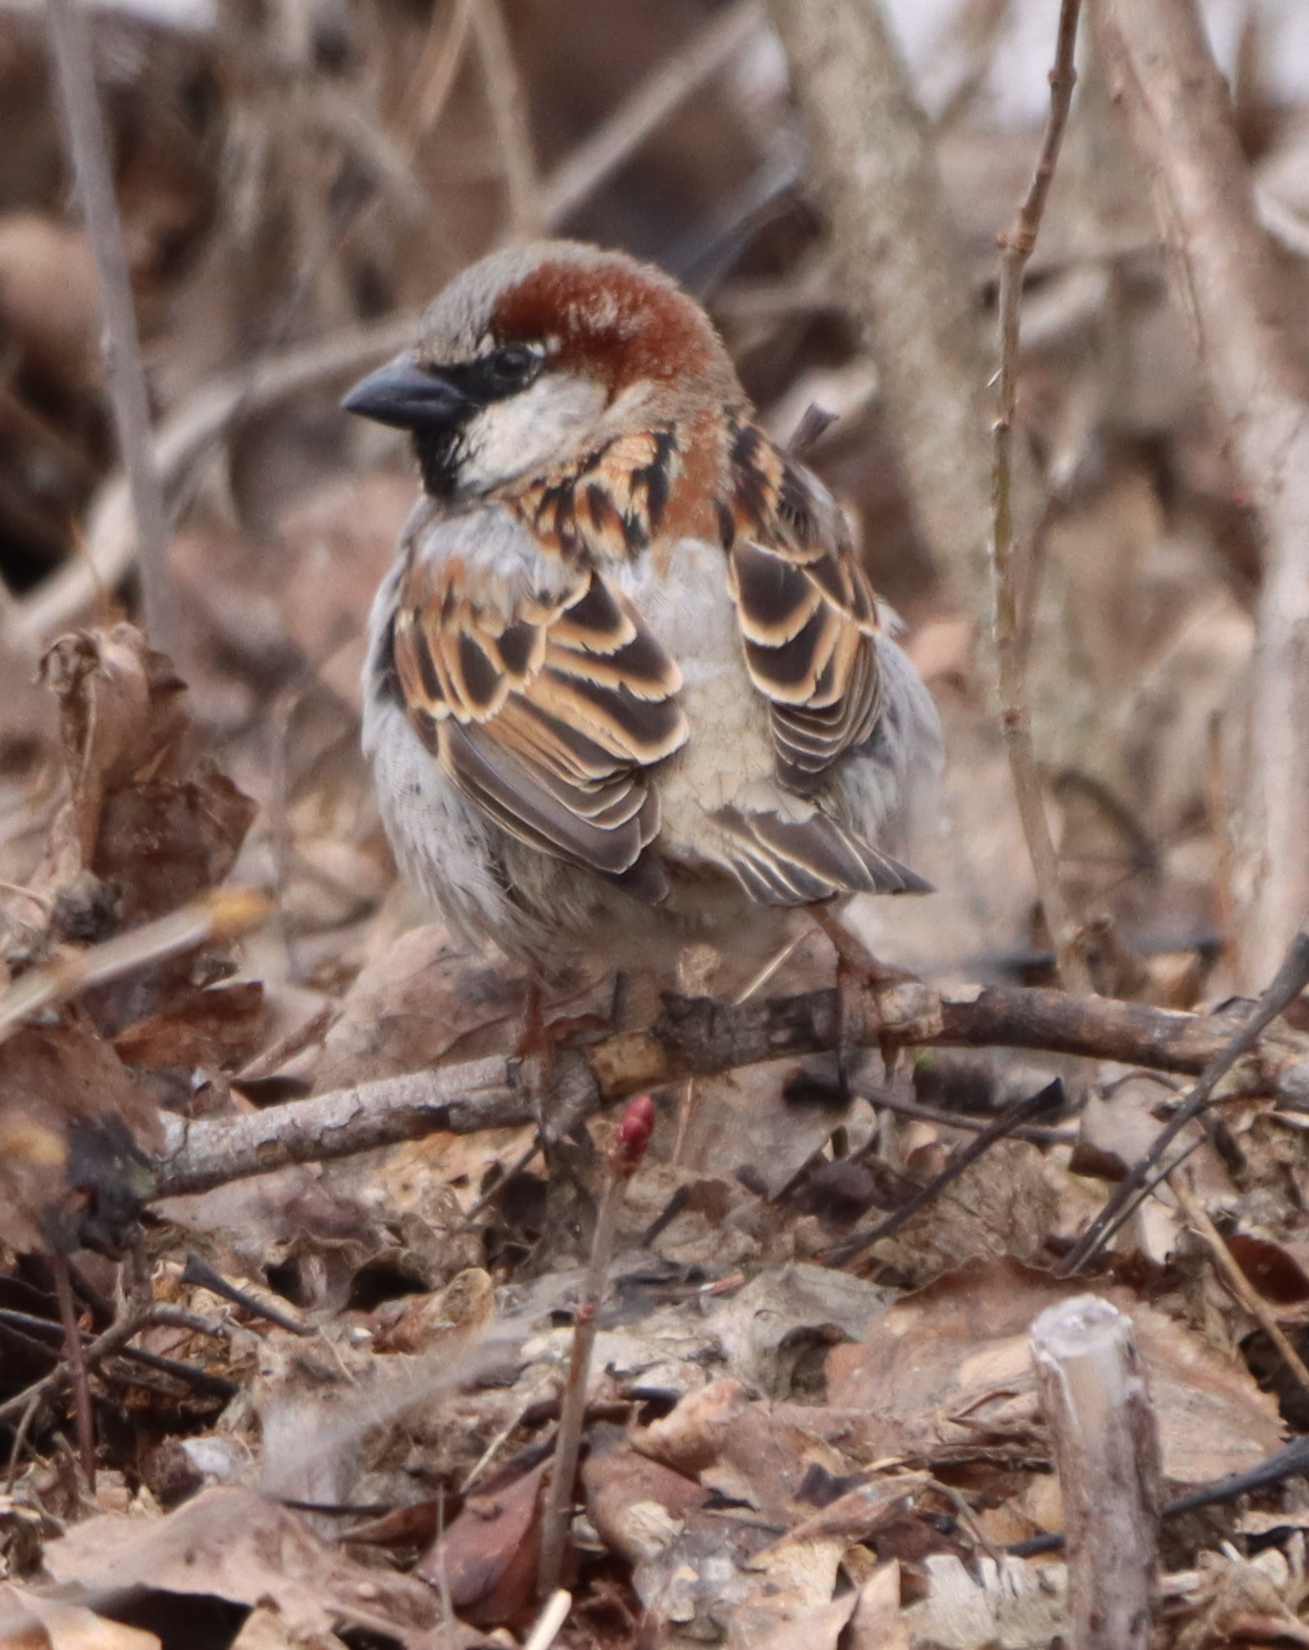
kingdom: Animalia
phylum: Chordata
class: Aves
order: Passeriformes
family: Passeridae
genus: Passer
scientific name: Passer domesticus
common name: House sparrow
